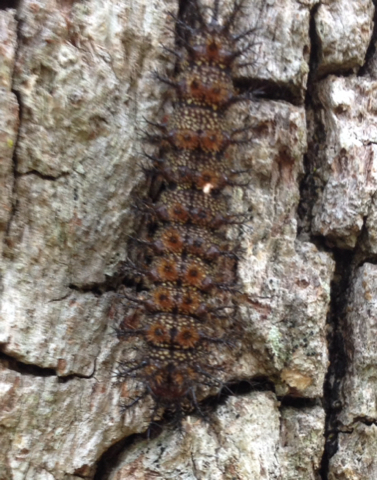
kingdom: Animalia
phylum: Arthropoda
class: Insecta
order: Lepidoptera
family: Saturniidae
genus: Hemileuca
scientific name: Hemileuca maia
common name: Eastern buckmoth
